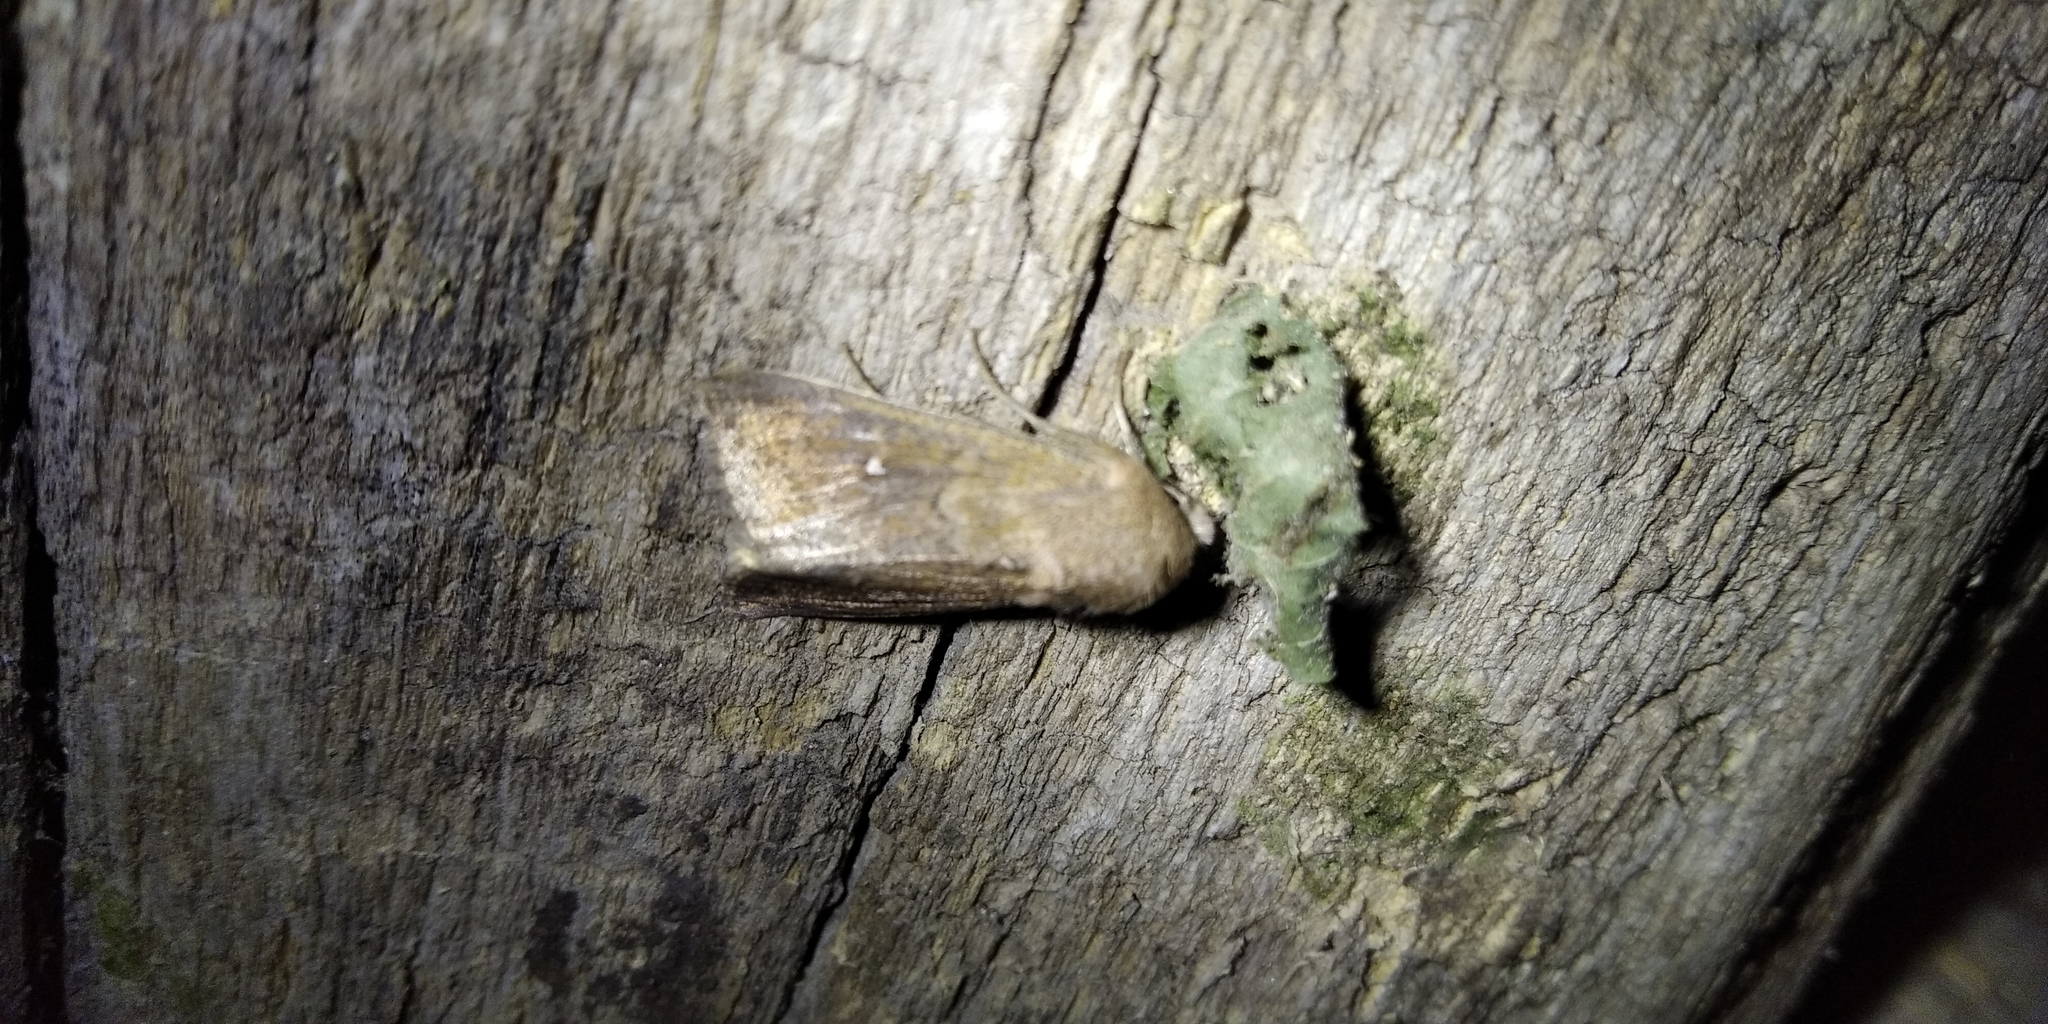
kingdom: Animalia
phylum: Arthropoda
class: Insecta
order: Lepidoptera
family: Noctuidae
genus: Mythimna
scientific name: Mythimna albipuncta
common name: White-point
